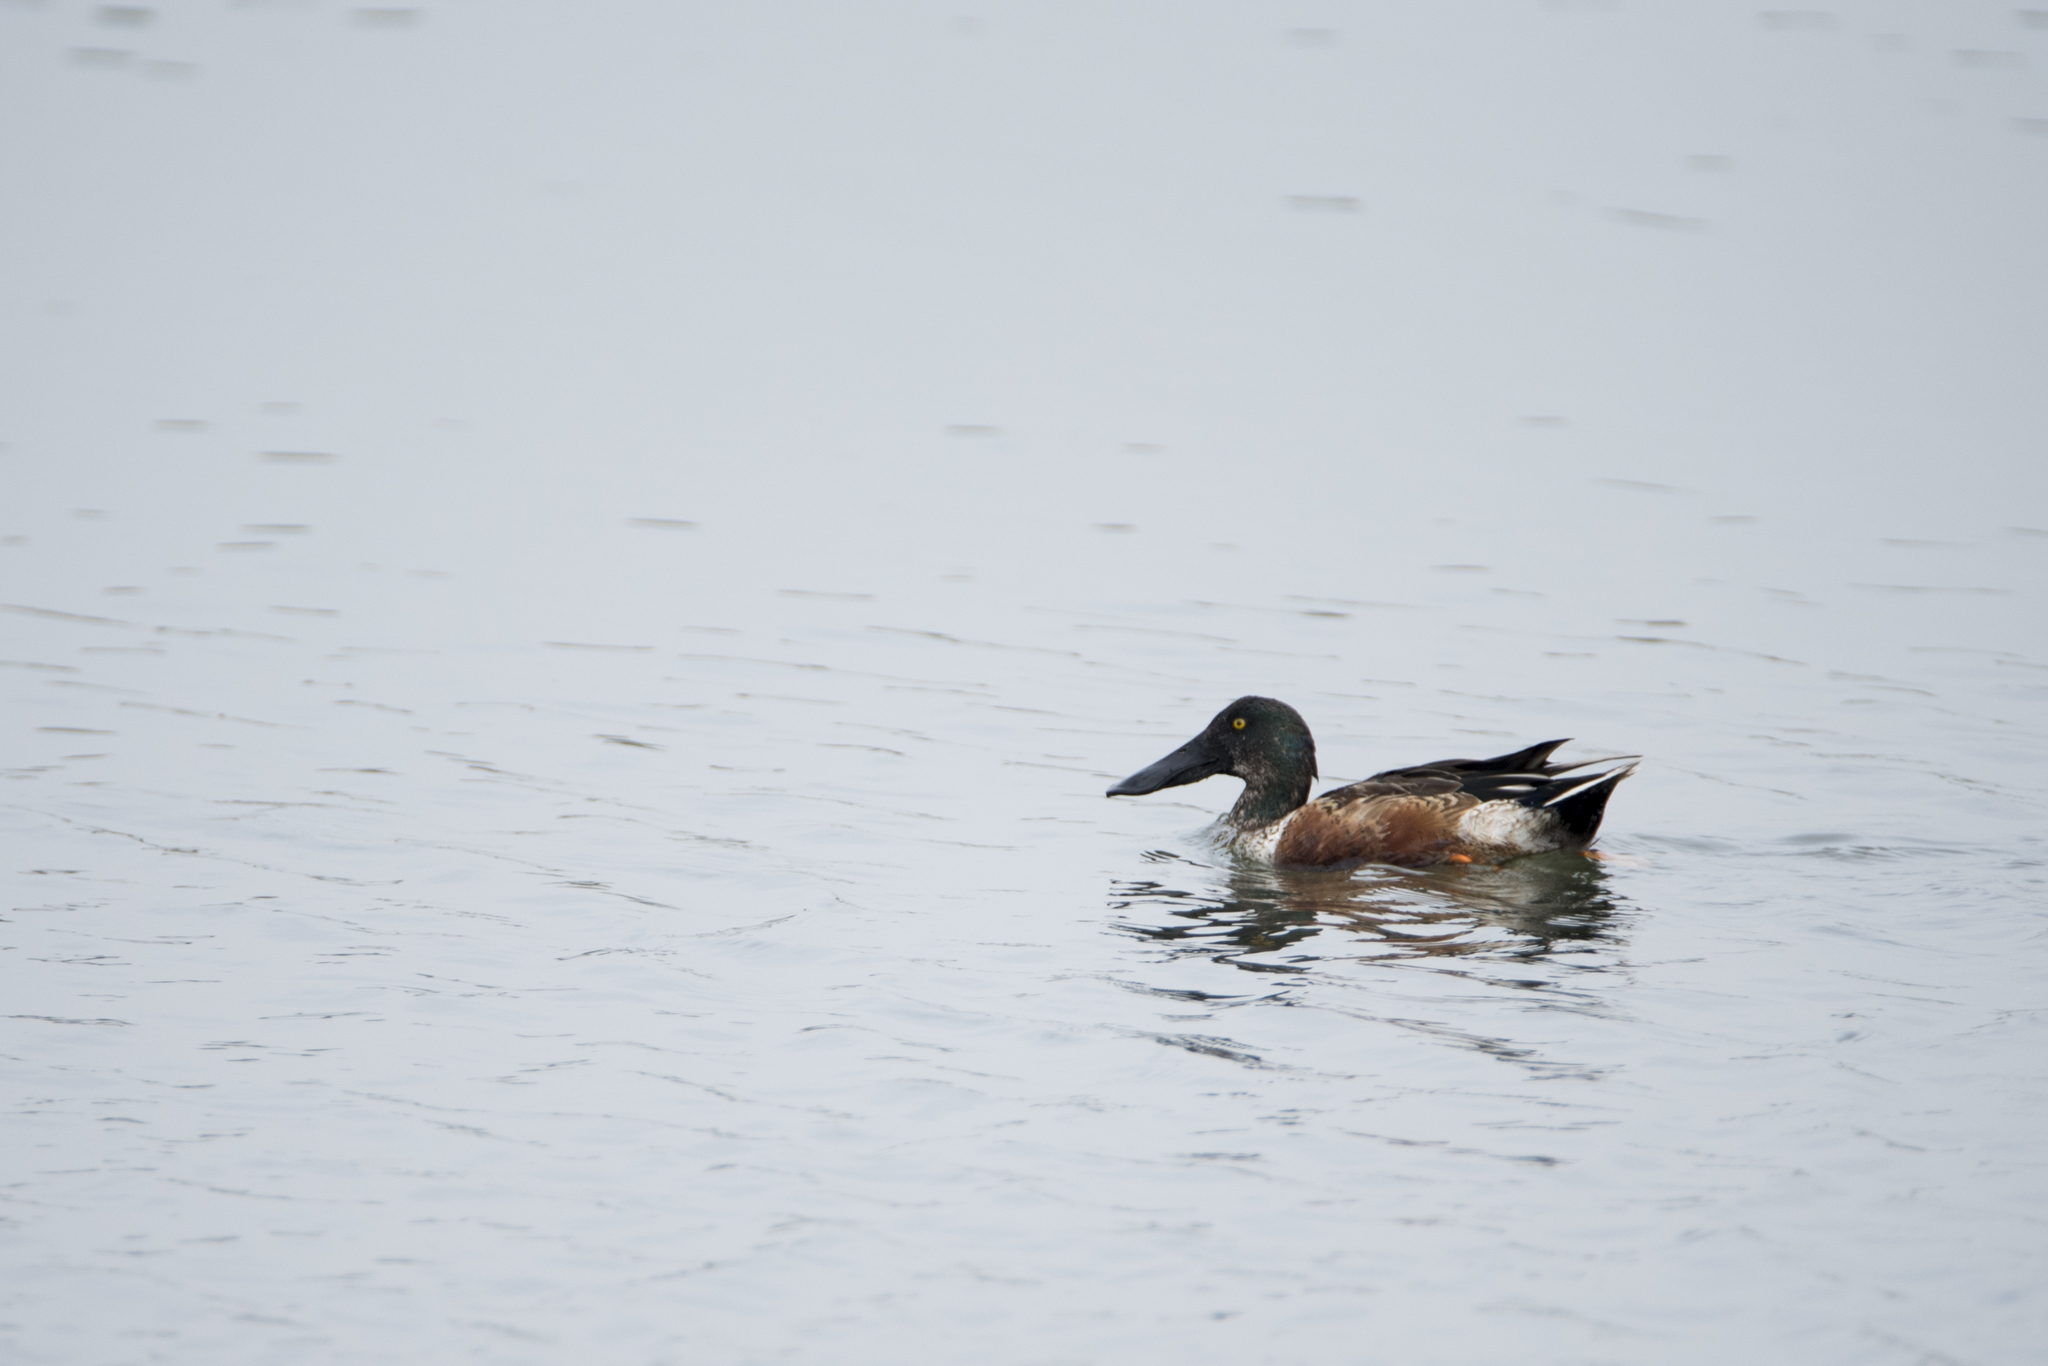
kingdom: Animalia
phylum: Chordata
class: Aves
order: Anseriformes
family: Anatidae
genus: Spatula
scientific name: Spatula clypeata
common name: Northern shoveler
